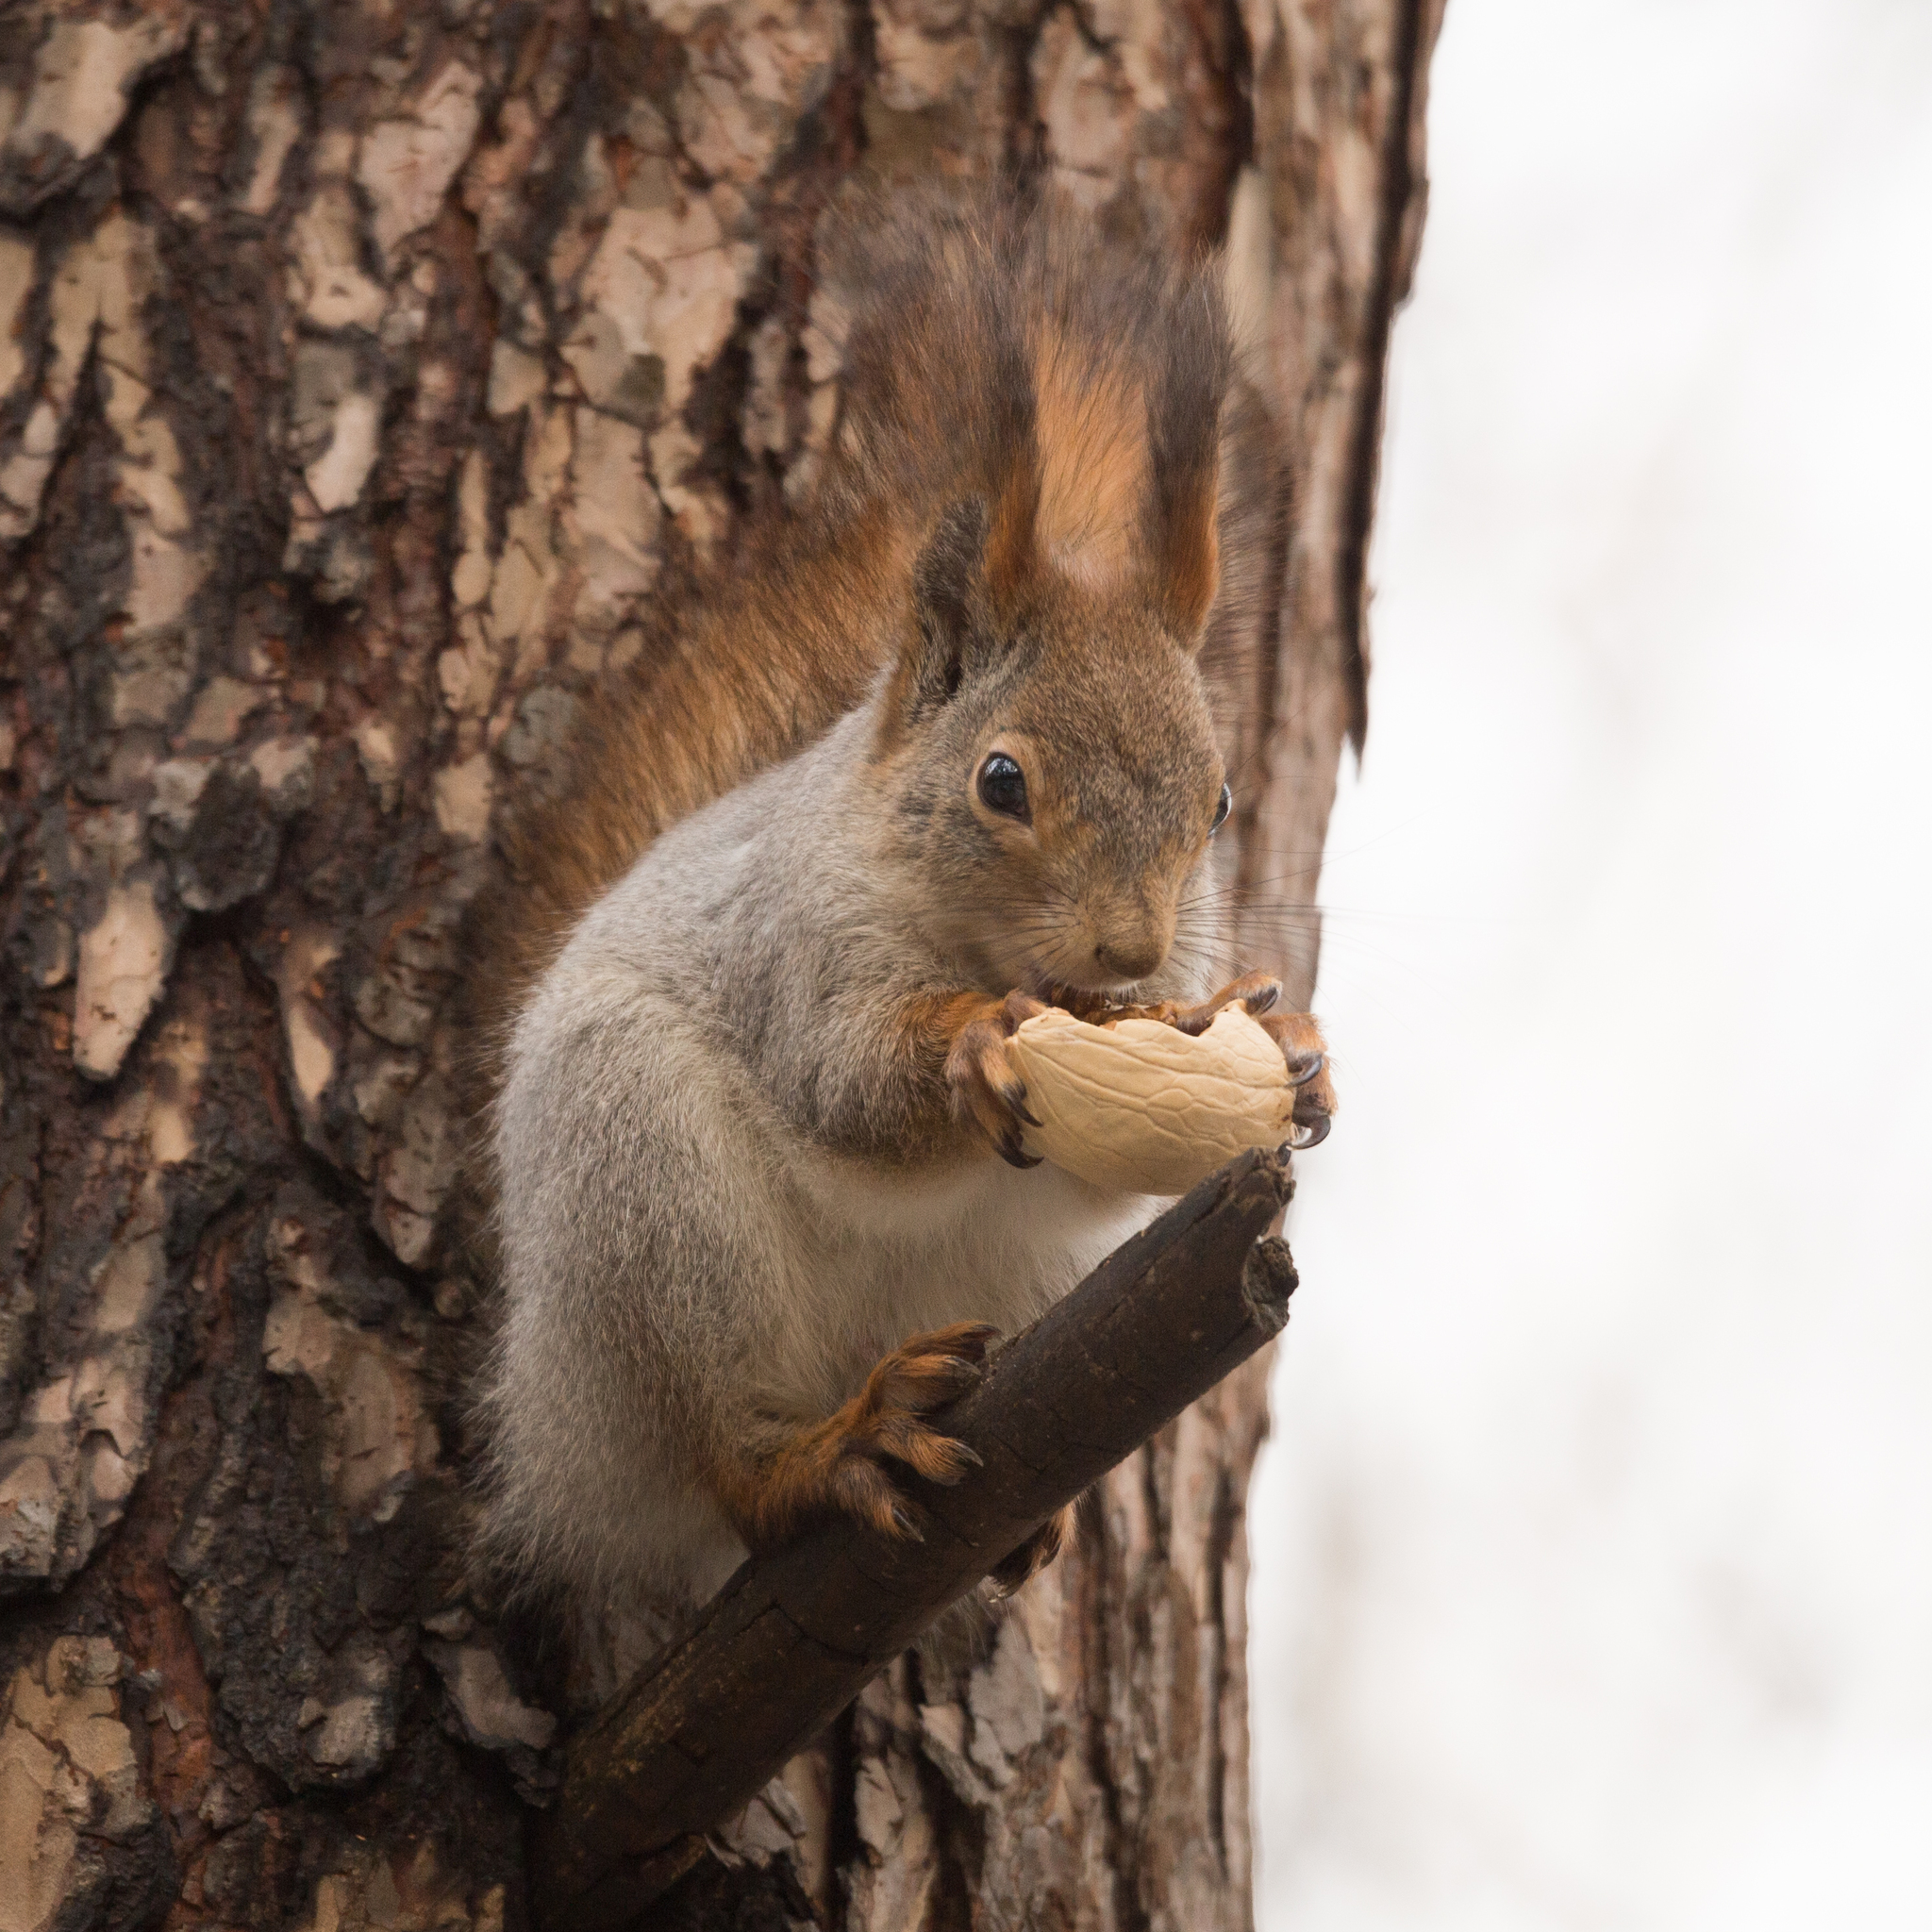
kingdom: Animalia
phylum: Chordata
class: Mammalia
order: Rodentia
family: Sciuridae
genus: Sciurus
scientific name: Sciurus vulgaris
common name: Eurasian red squirrel
